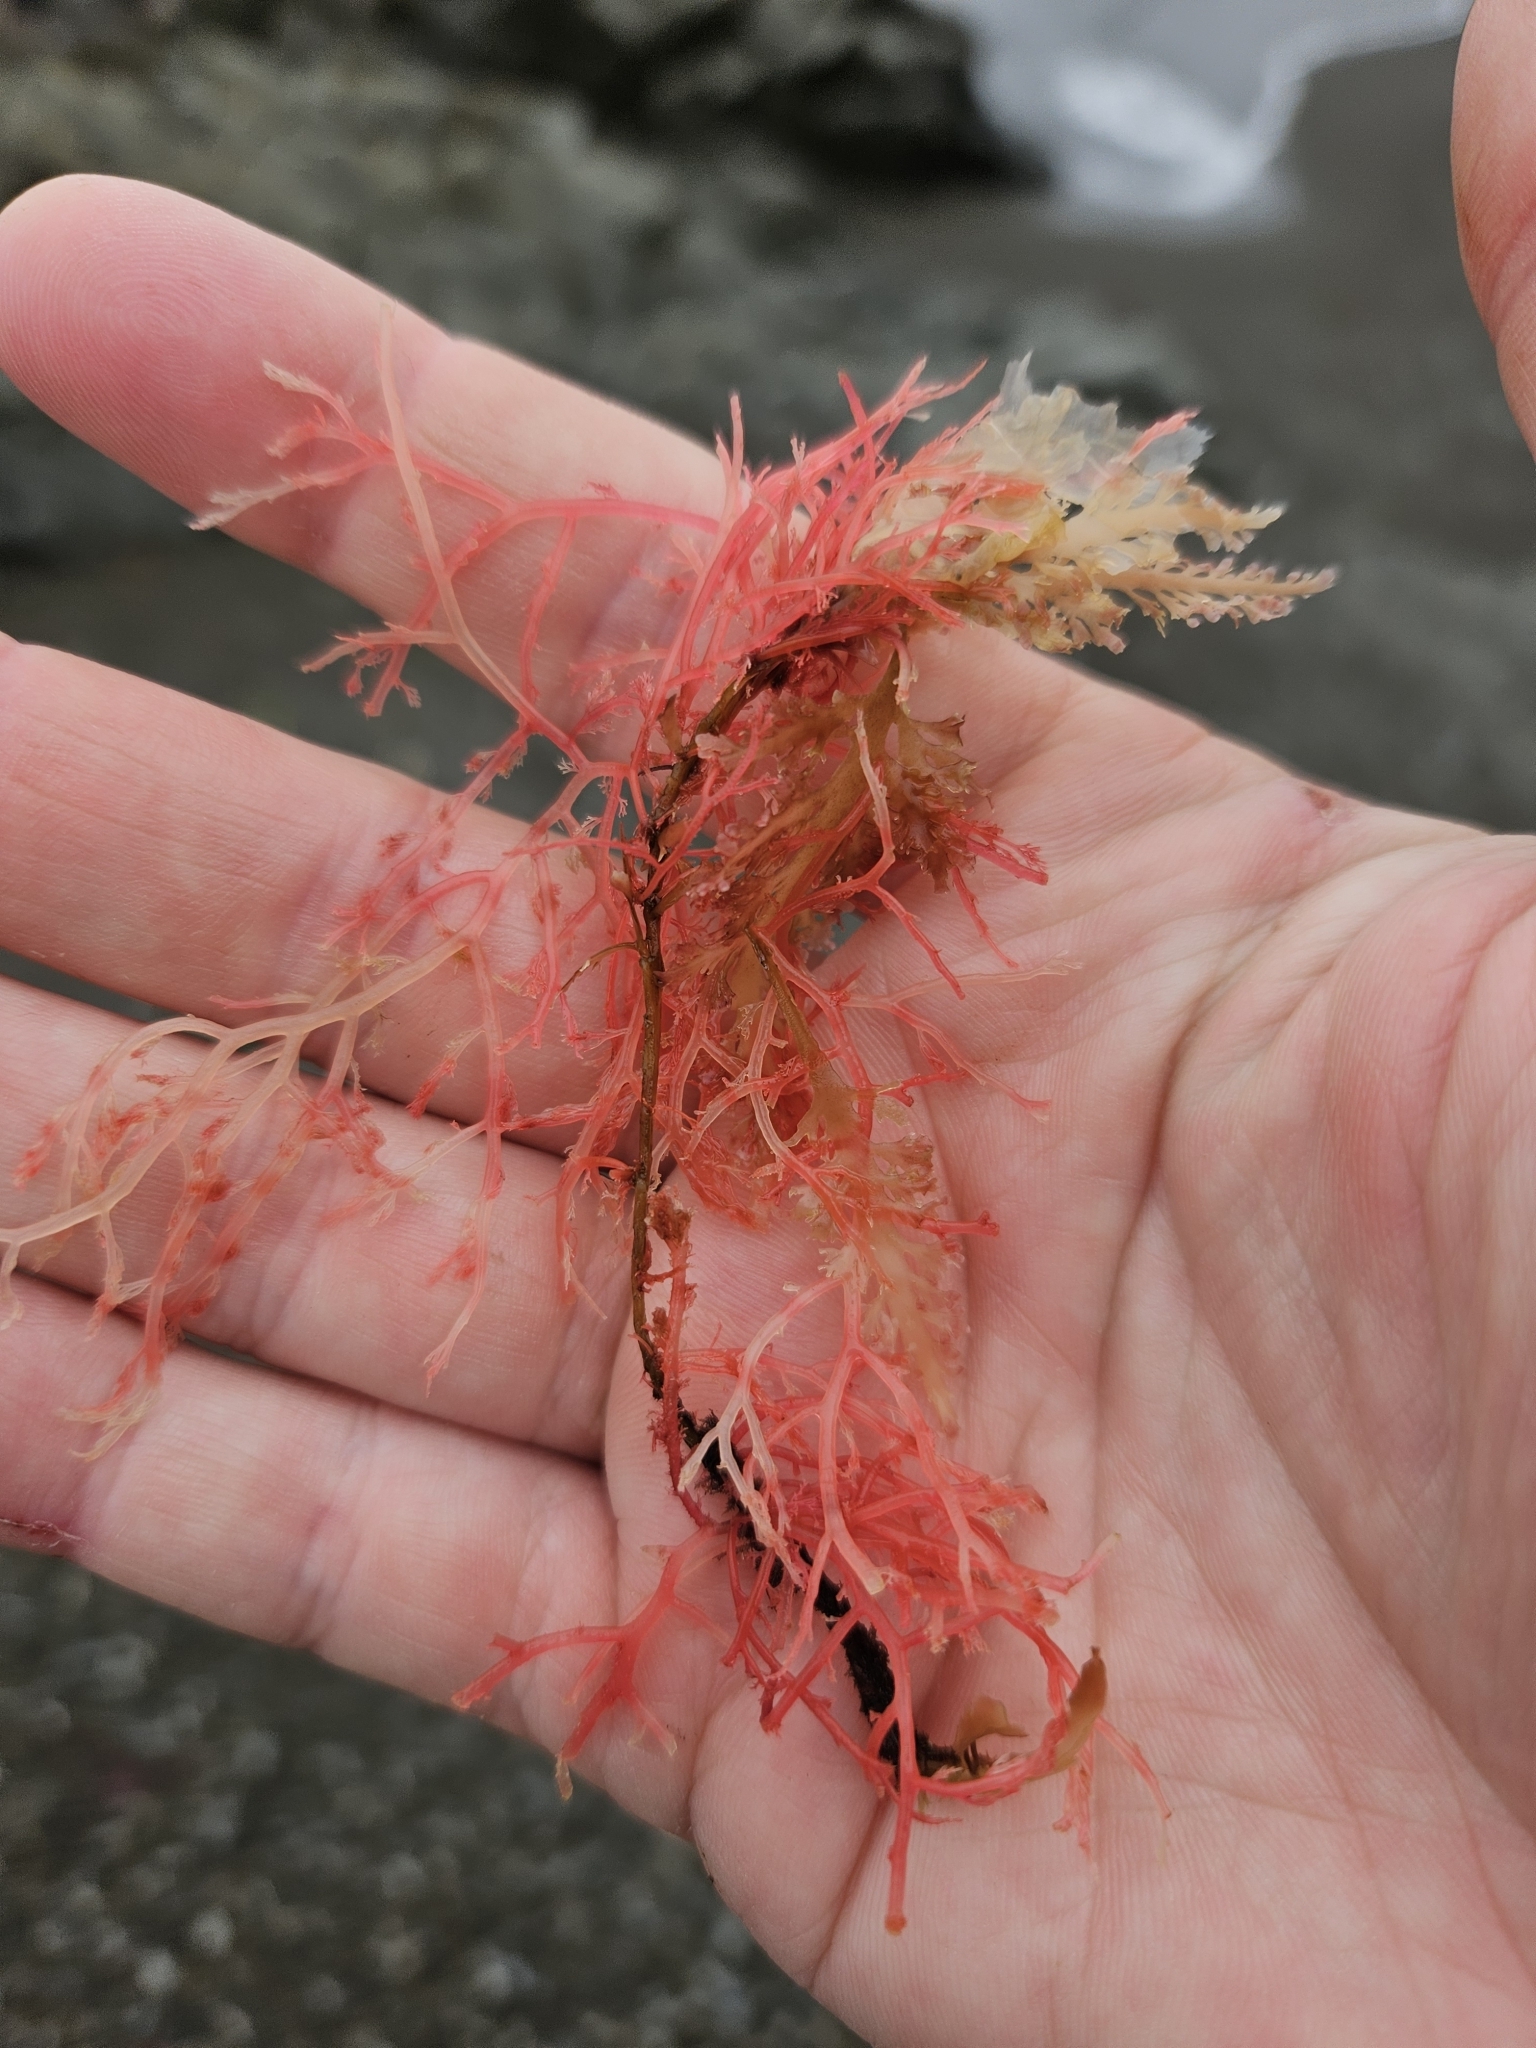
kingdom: Plantae
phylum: Rhodophyta
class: Florideophyceae
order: Ceramiales
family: Rhodomelaceae
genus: Streblocladia
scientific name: Streblocladia glomerulata
